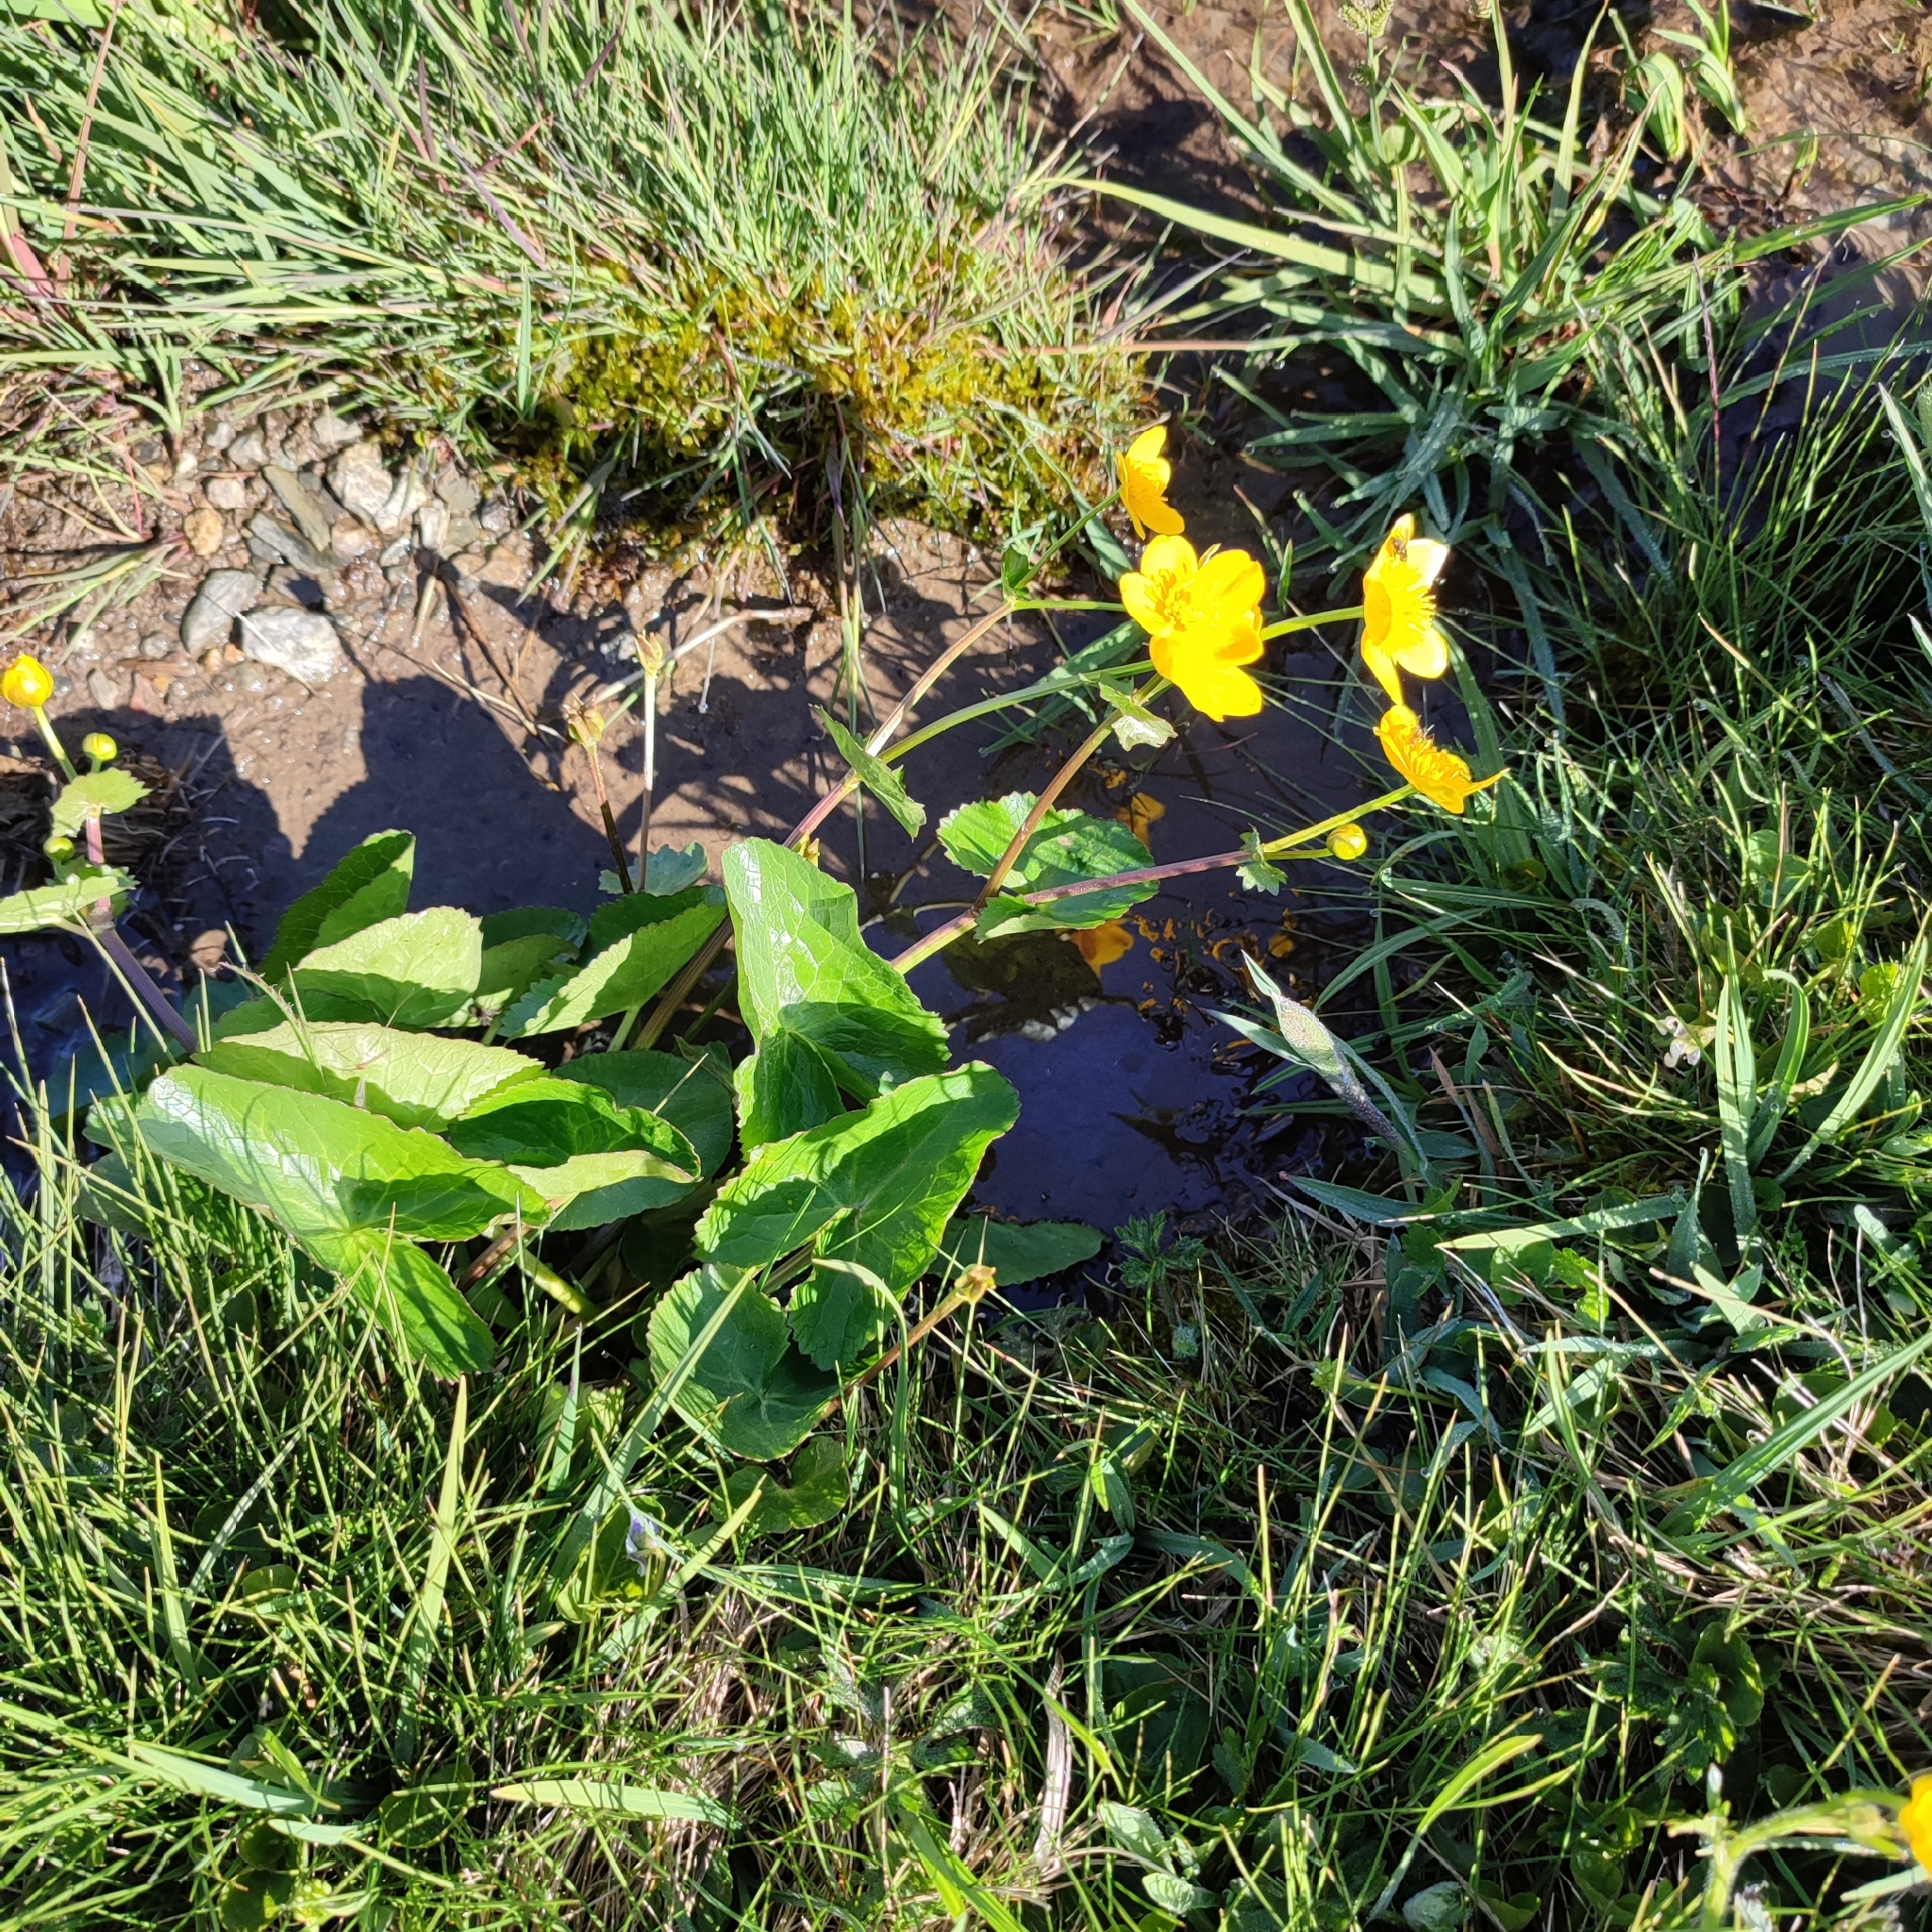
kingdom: Plantae
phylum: Tracheophyta
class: Magnoliopsida
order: Ranunculales
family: Ranunculaceae
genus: Caltha
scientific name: Caltha palustris
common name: Marsh marigold
